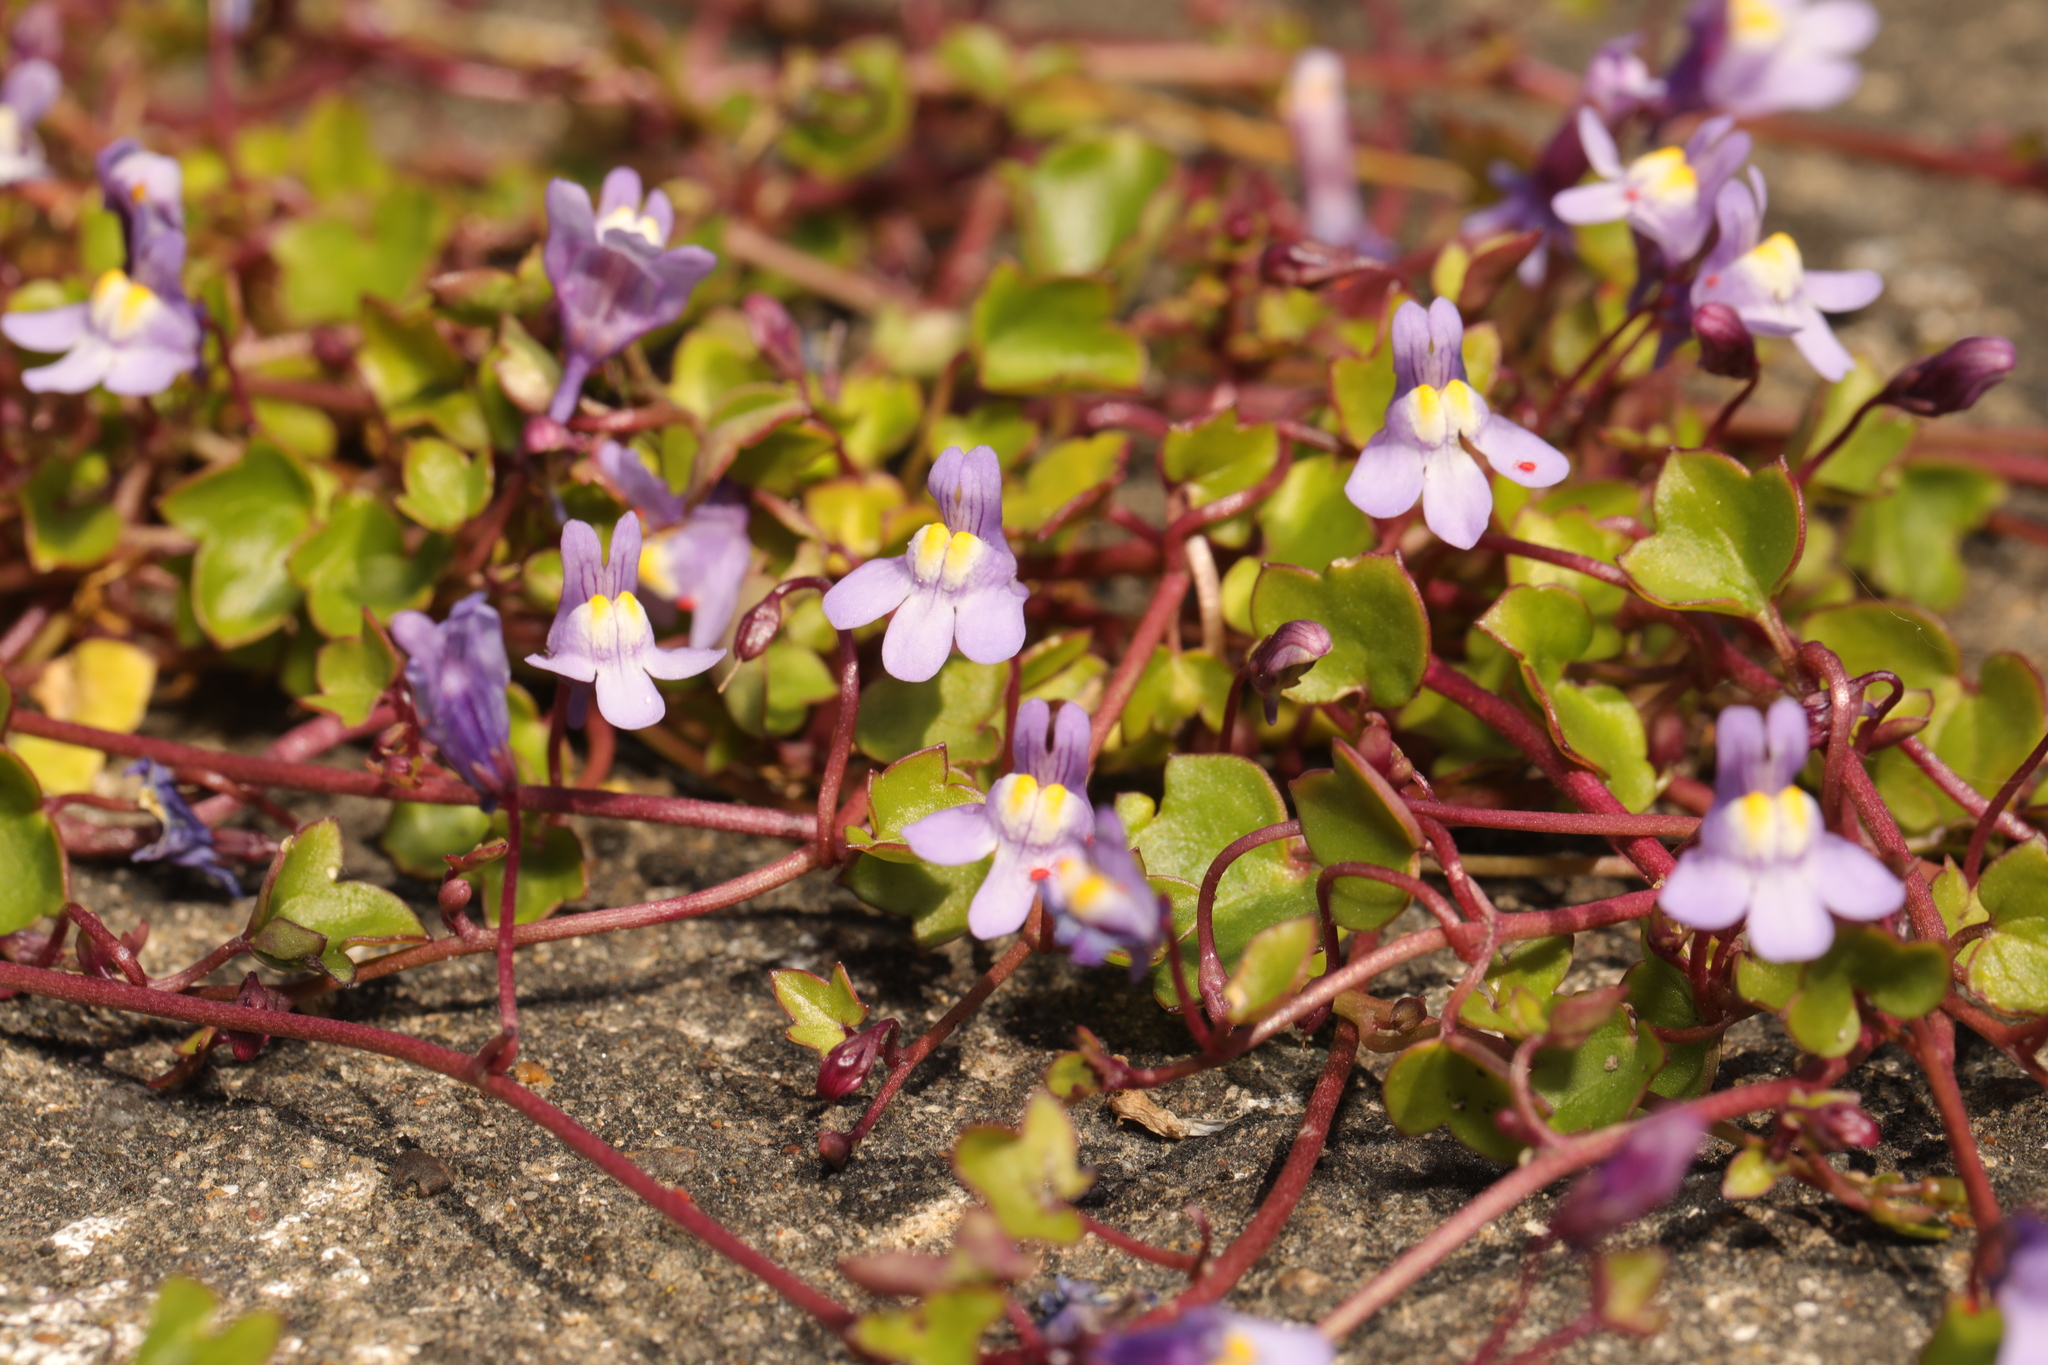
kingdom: Plantae
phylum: Tracheophyta
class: Magnoliopsida
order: Lamiales
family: Plantaginaceae
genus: Cymbalaria
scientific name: Cymbalaria muralis
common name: Ivy-leaved toadflax
